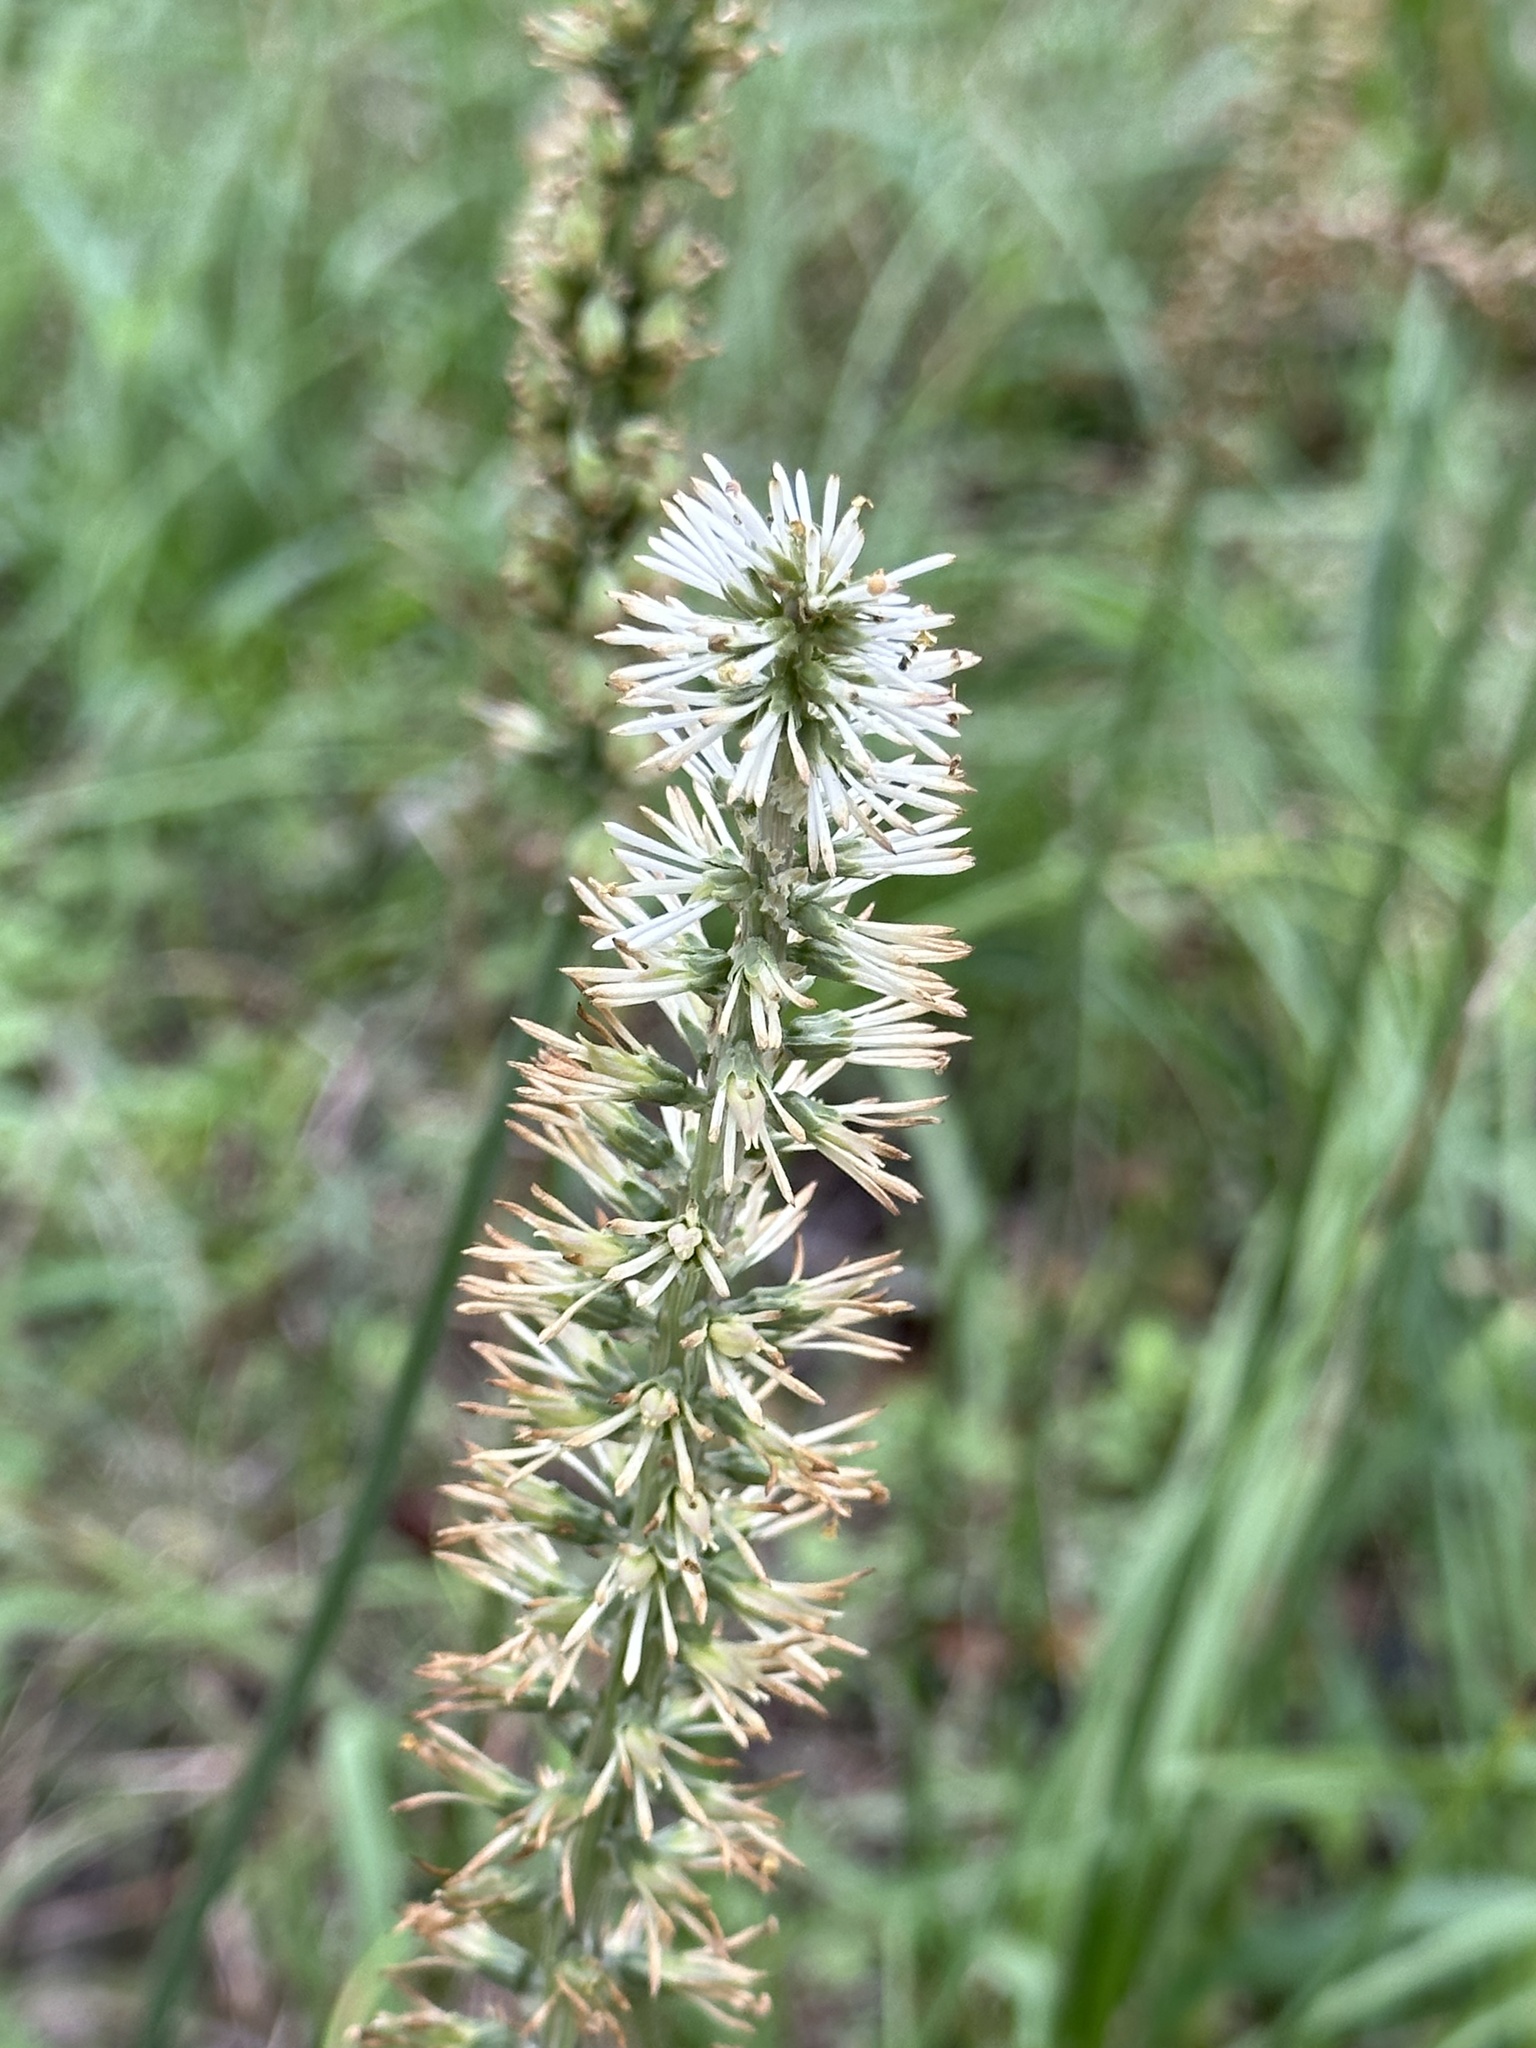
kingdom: Plantae
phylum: Tracheophyta
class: Liliopsida
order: Liliales
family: Melanthiaceae
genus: Schoenocaulon
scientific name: Schoenocaulon ghiesbreghtii
